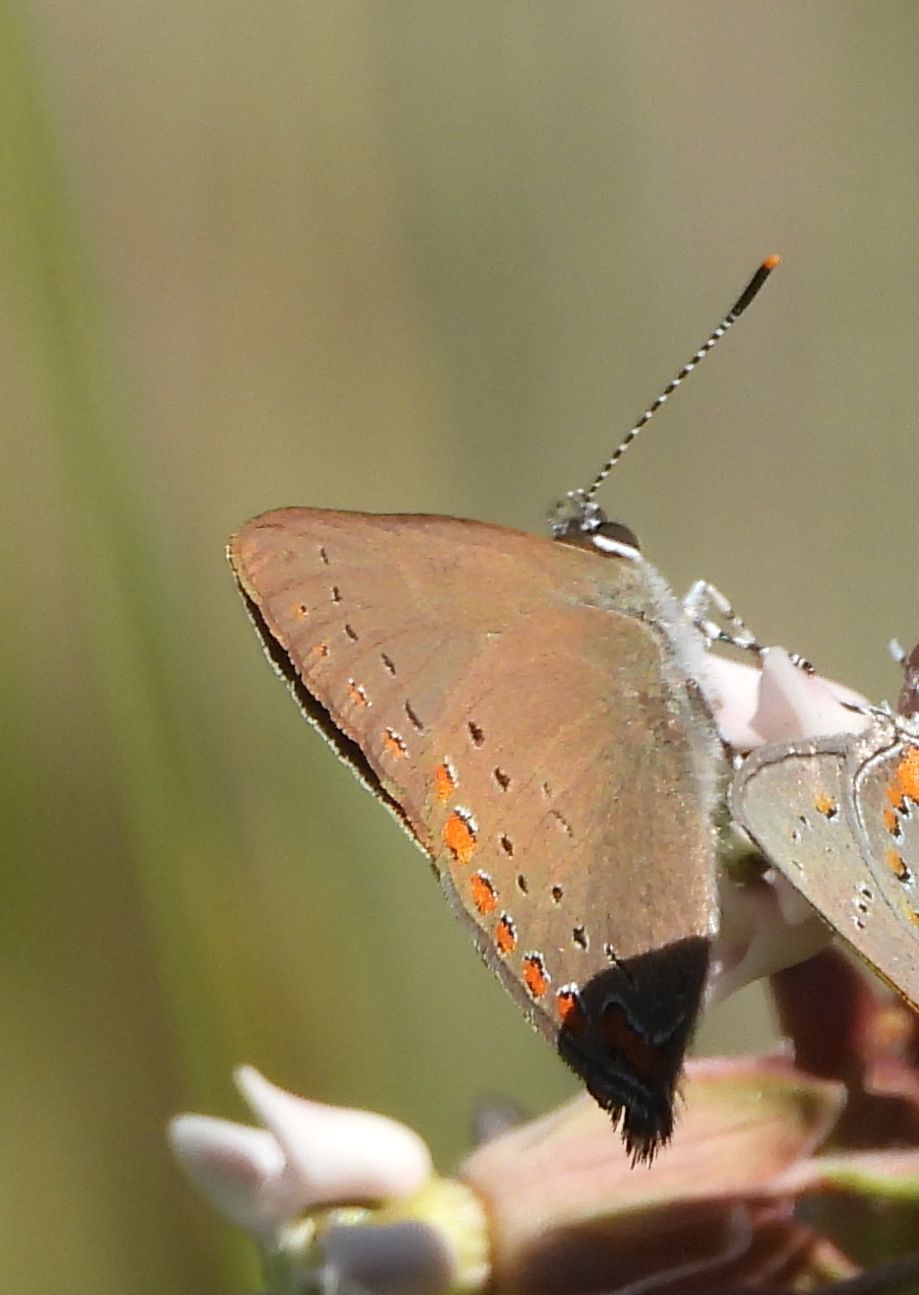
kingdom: Animalia
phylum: Arthropoda
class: Insecta
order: Lepidoptera
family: Lycaenidae
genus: Harkenclenus
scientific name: Harkenclenus titus
